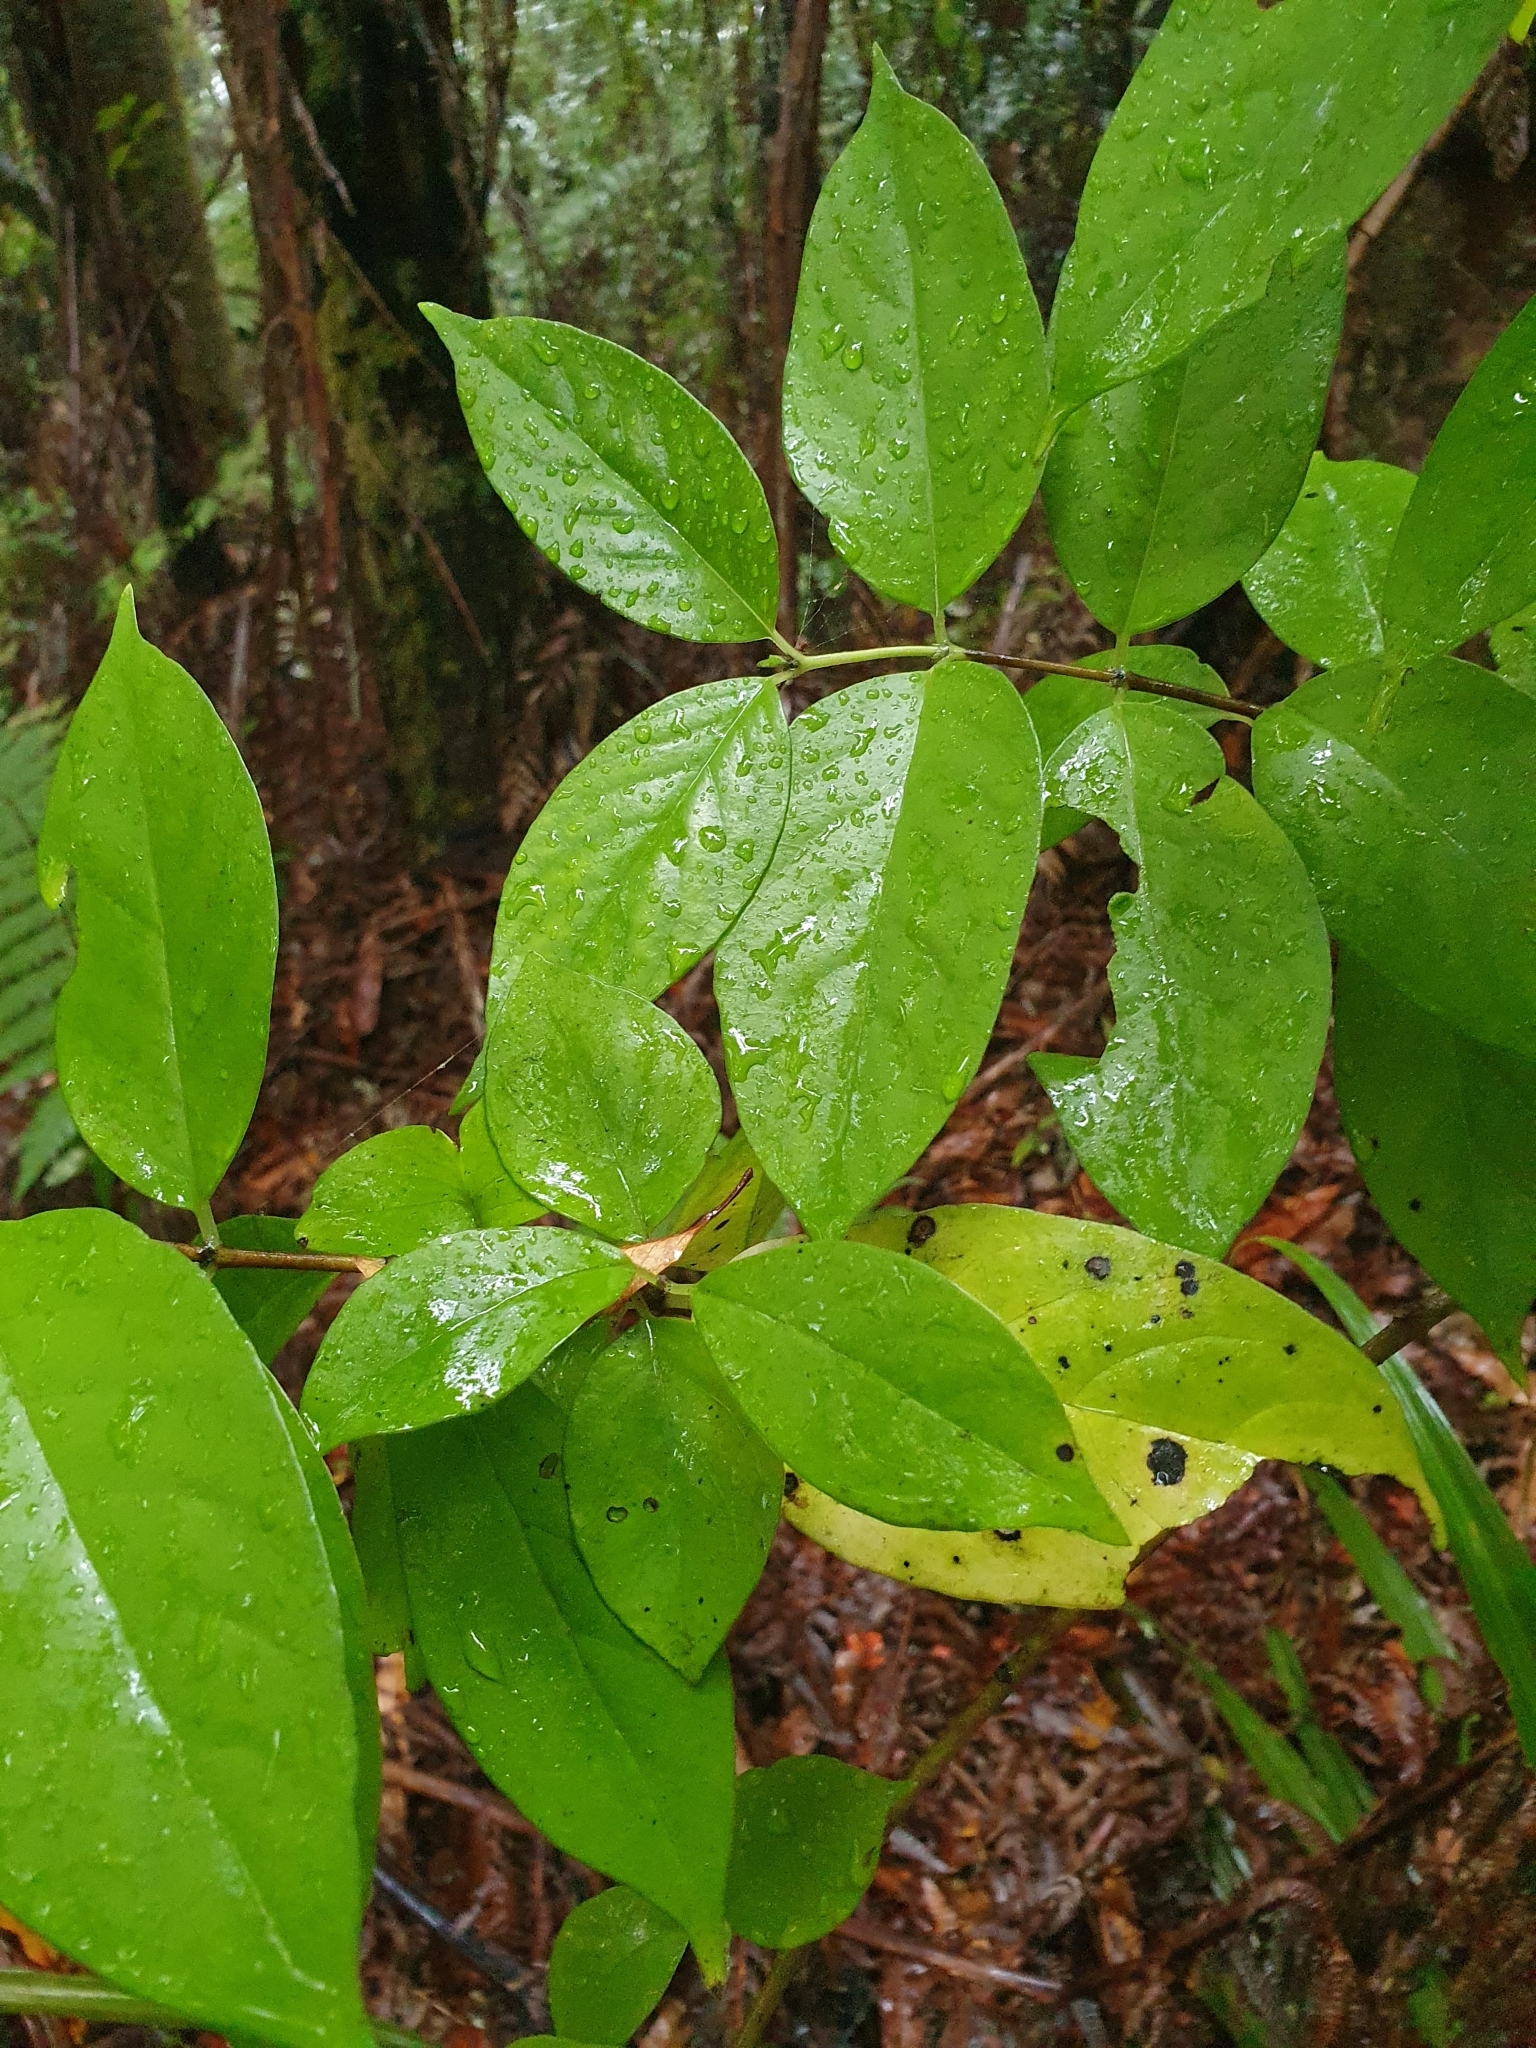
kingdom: Plantae
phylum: Tracheophyta
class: Magnoliopsida
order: Gentianales
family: Loganiaceae
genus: Geniostoma
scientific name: Geniostoma ligustrifolium
